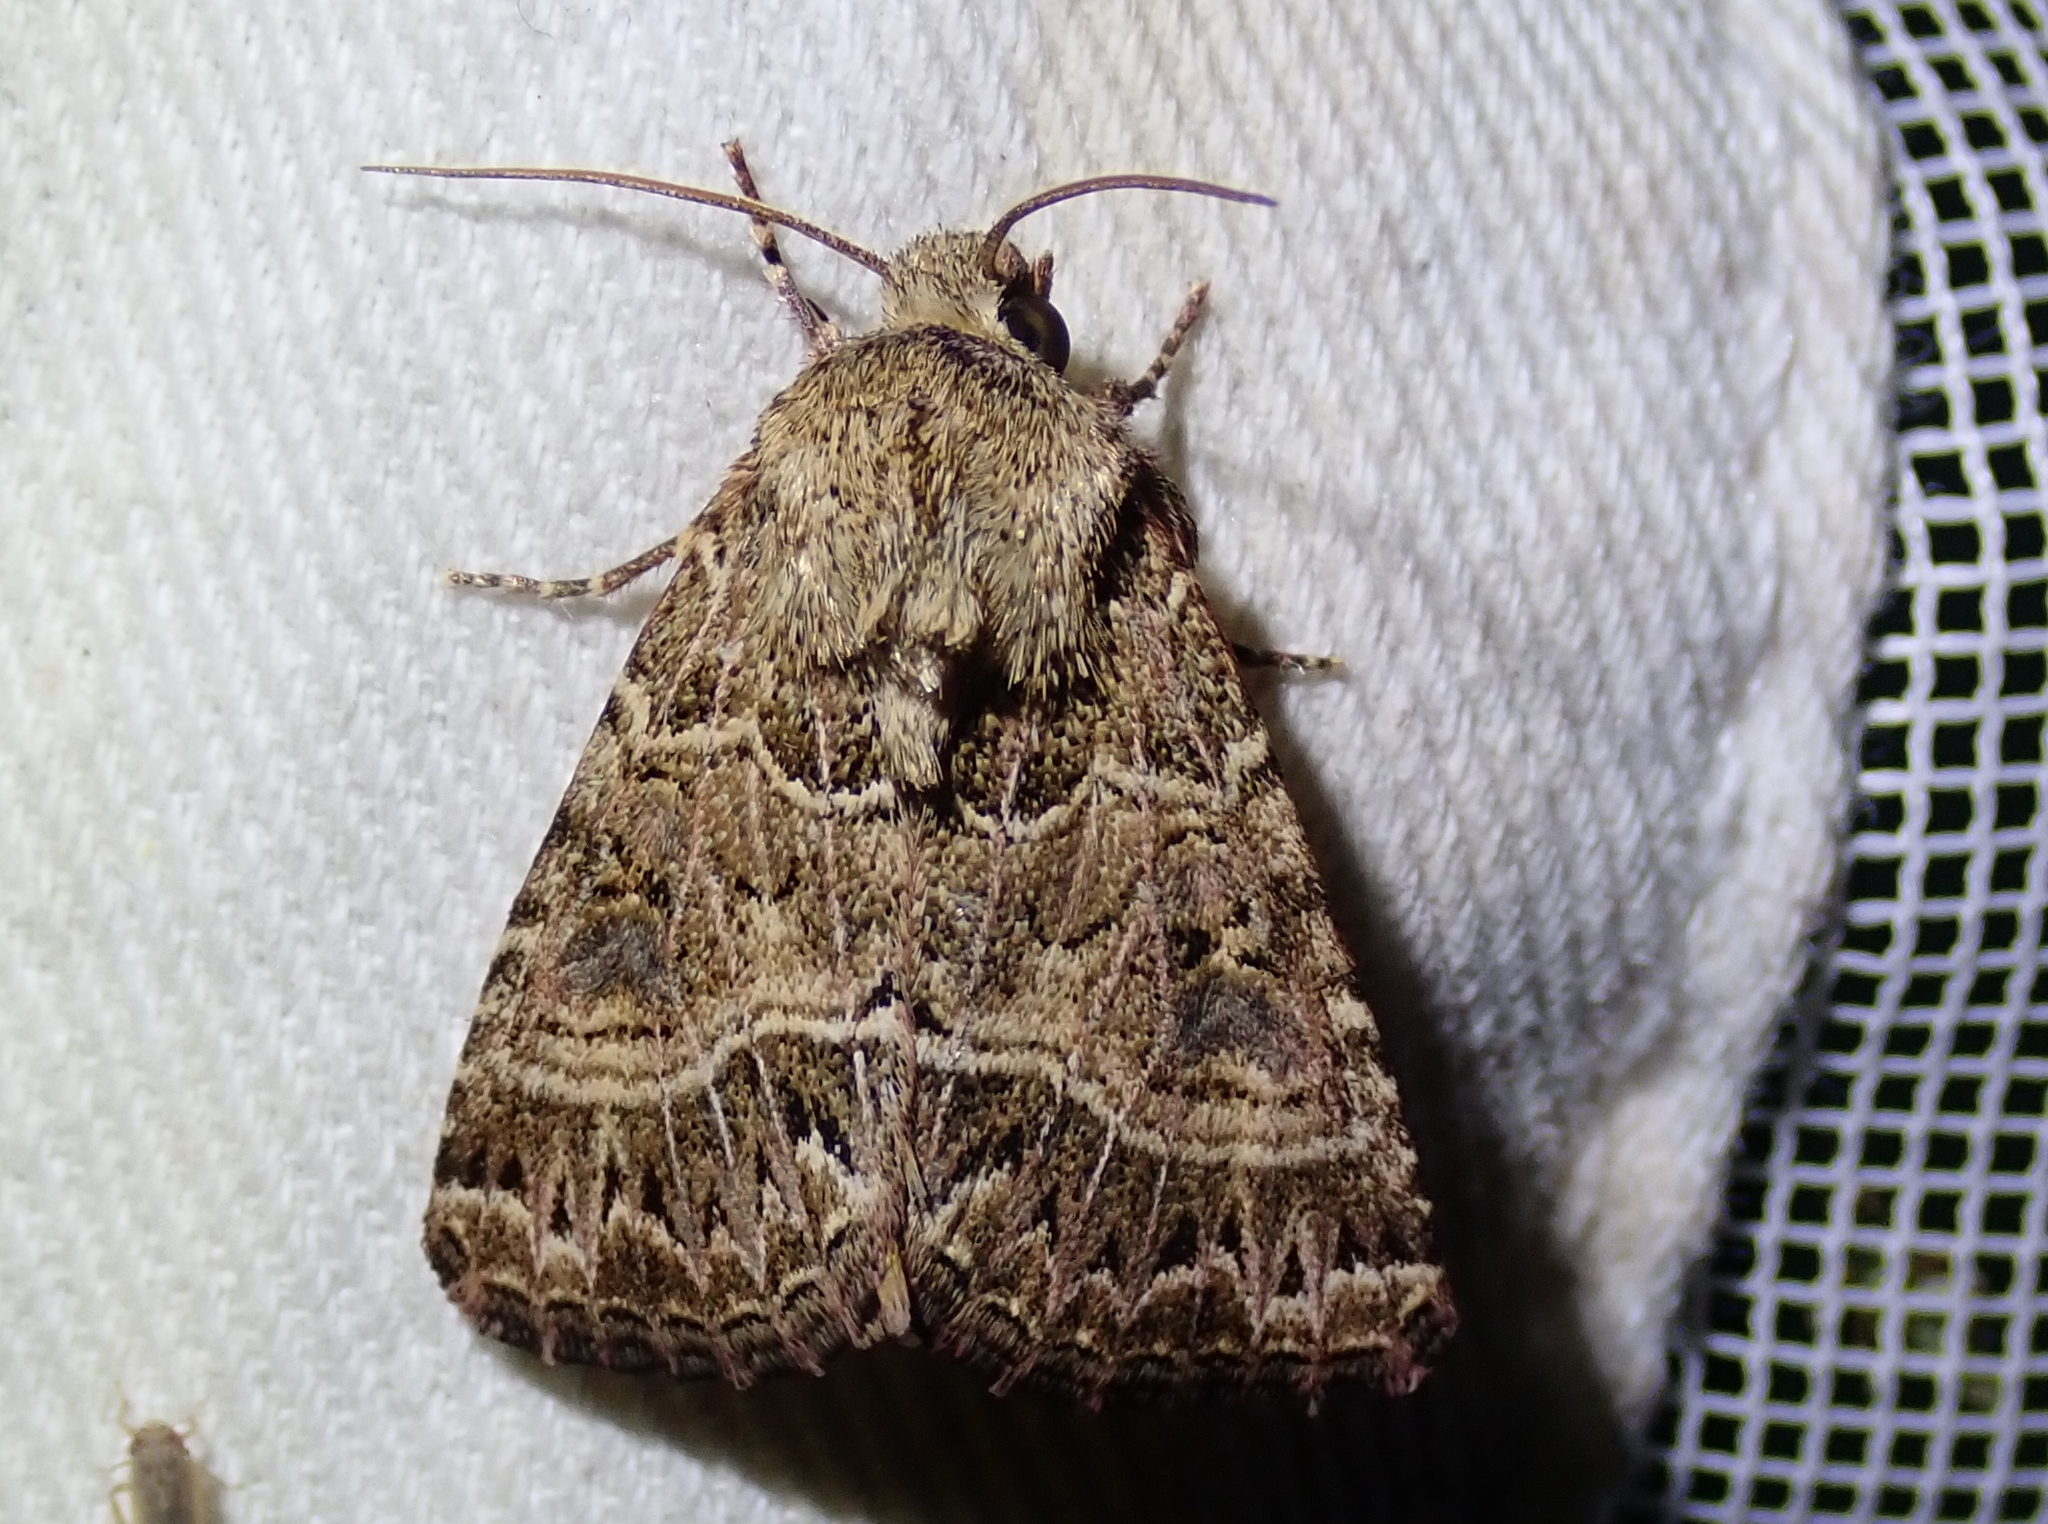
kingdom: Animalia
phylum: Arthropoda
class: Insecta
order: Lepidoptera
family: Noctuidae
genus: Schinia
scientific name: Schinia mexicana
